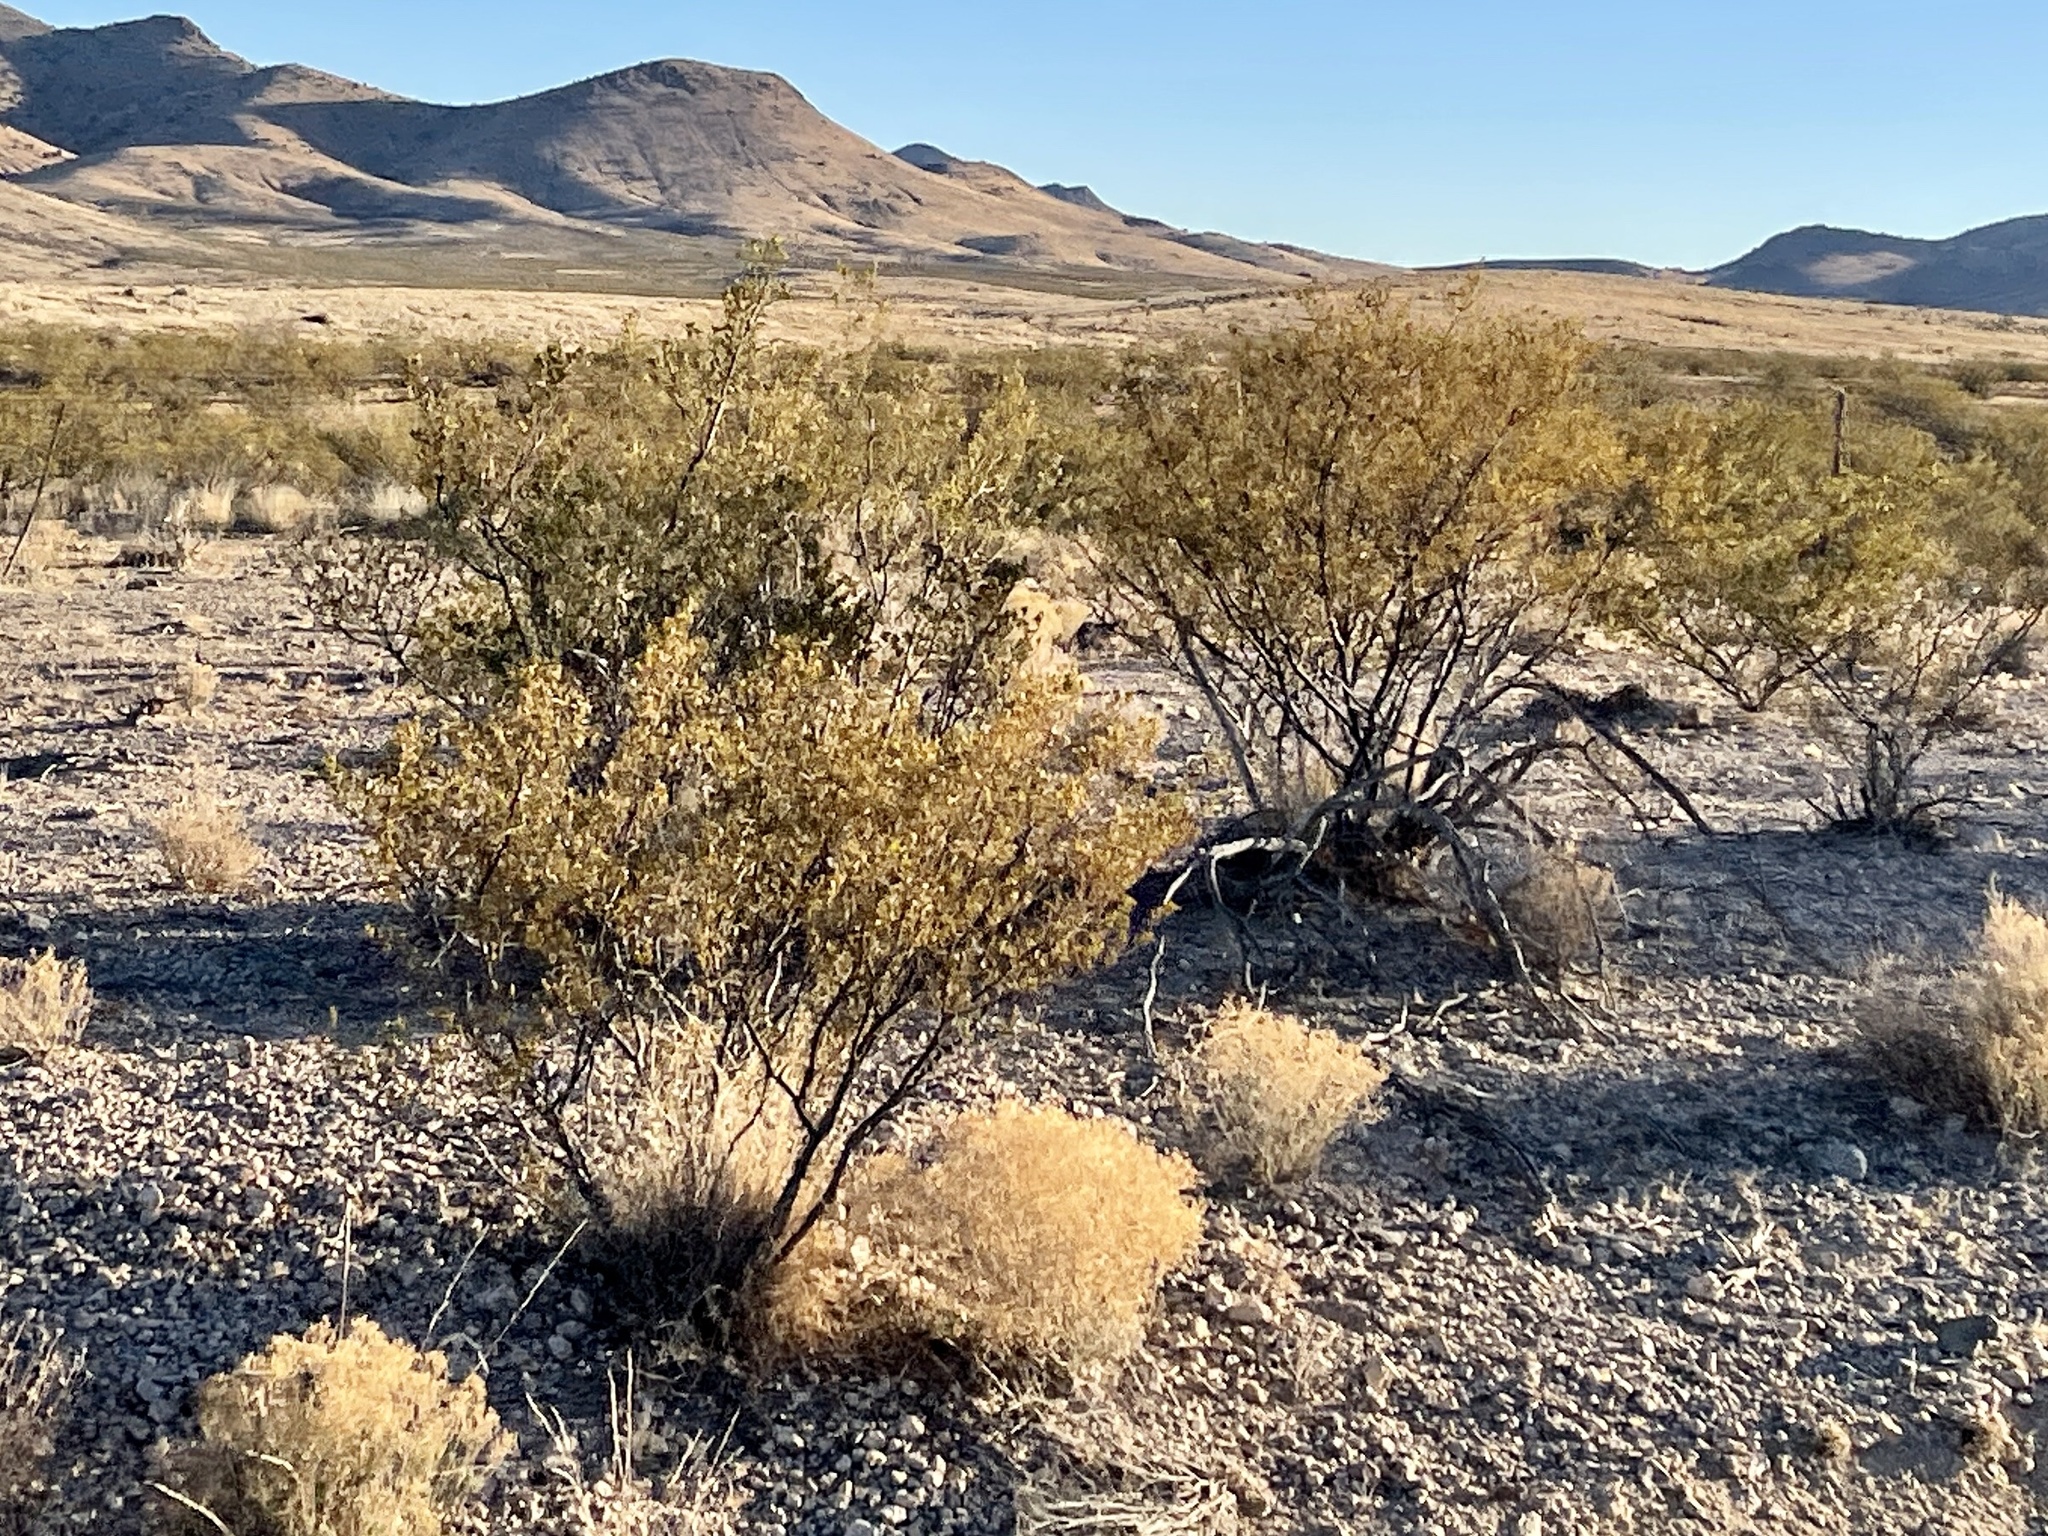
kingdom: Plantae
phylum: Tracheophyta
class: Magnoliopsida
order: Zygophyllales
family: Zygophyllaceae
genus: Larrea
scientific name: Larrea tridentata
